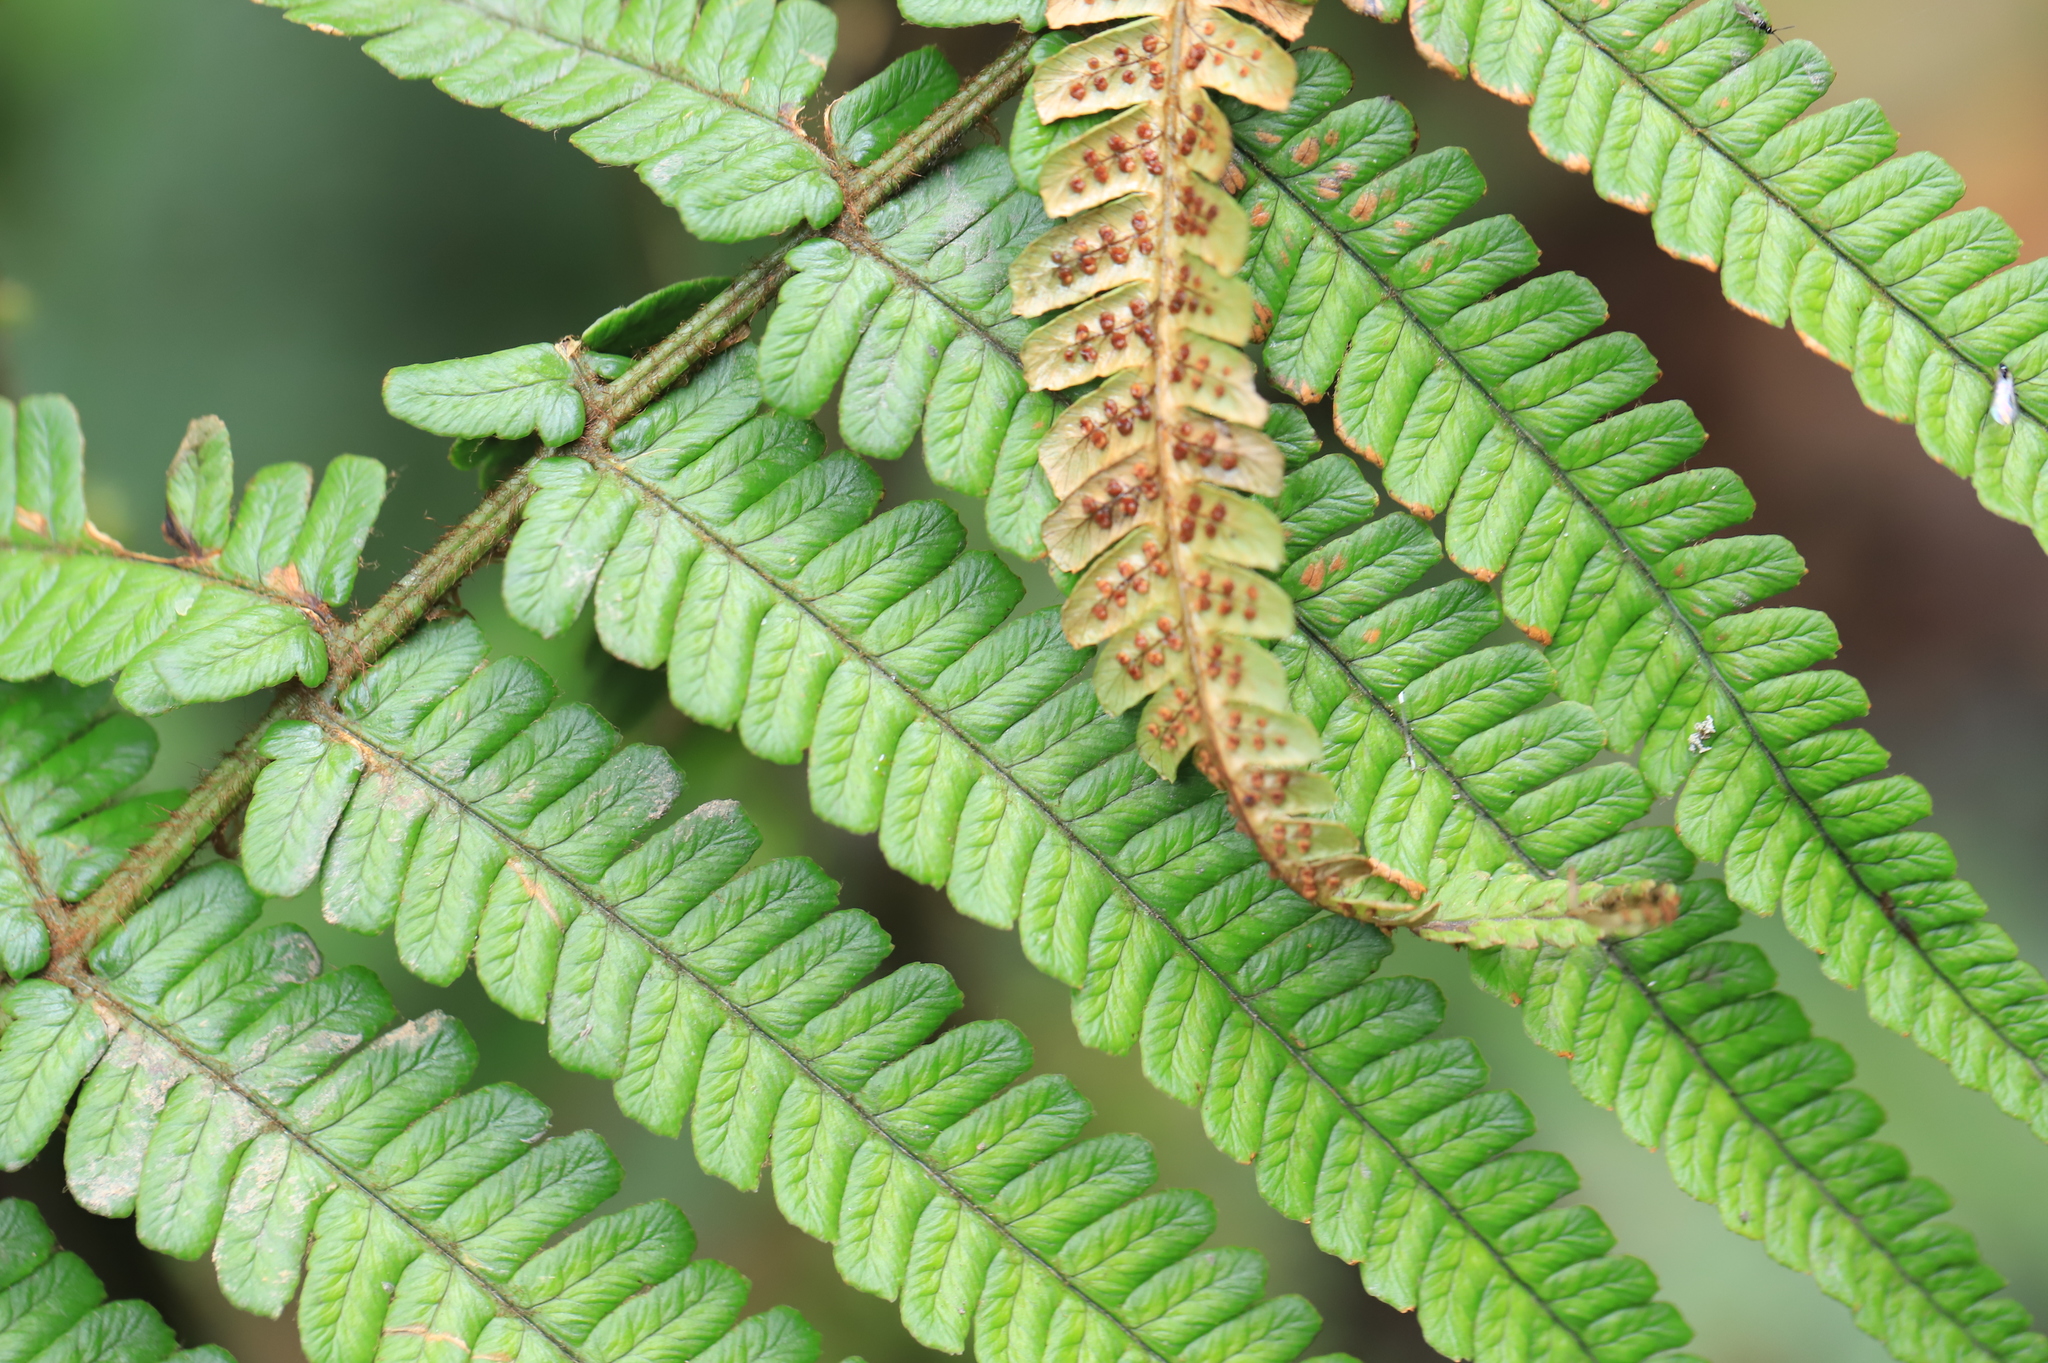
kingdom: Plantae
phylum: Tracheophyta
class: Polypodiopsida
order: Polypodiales
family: Dryopteridaceae
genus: Dryopteris
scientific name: Dryopteris wallichiana
